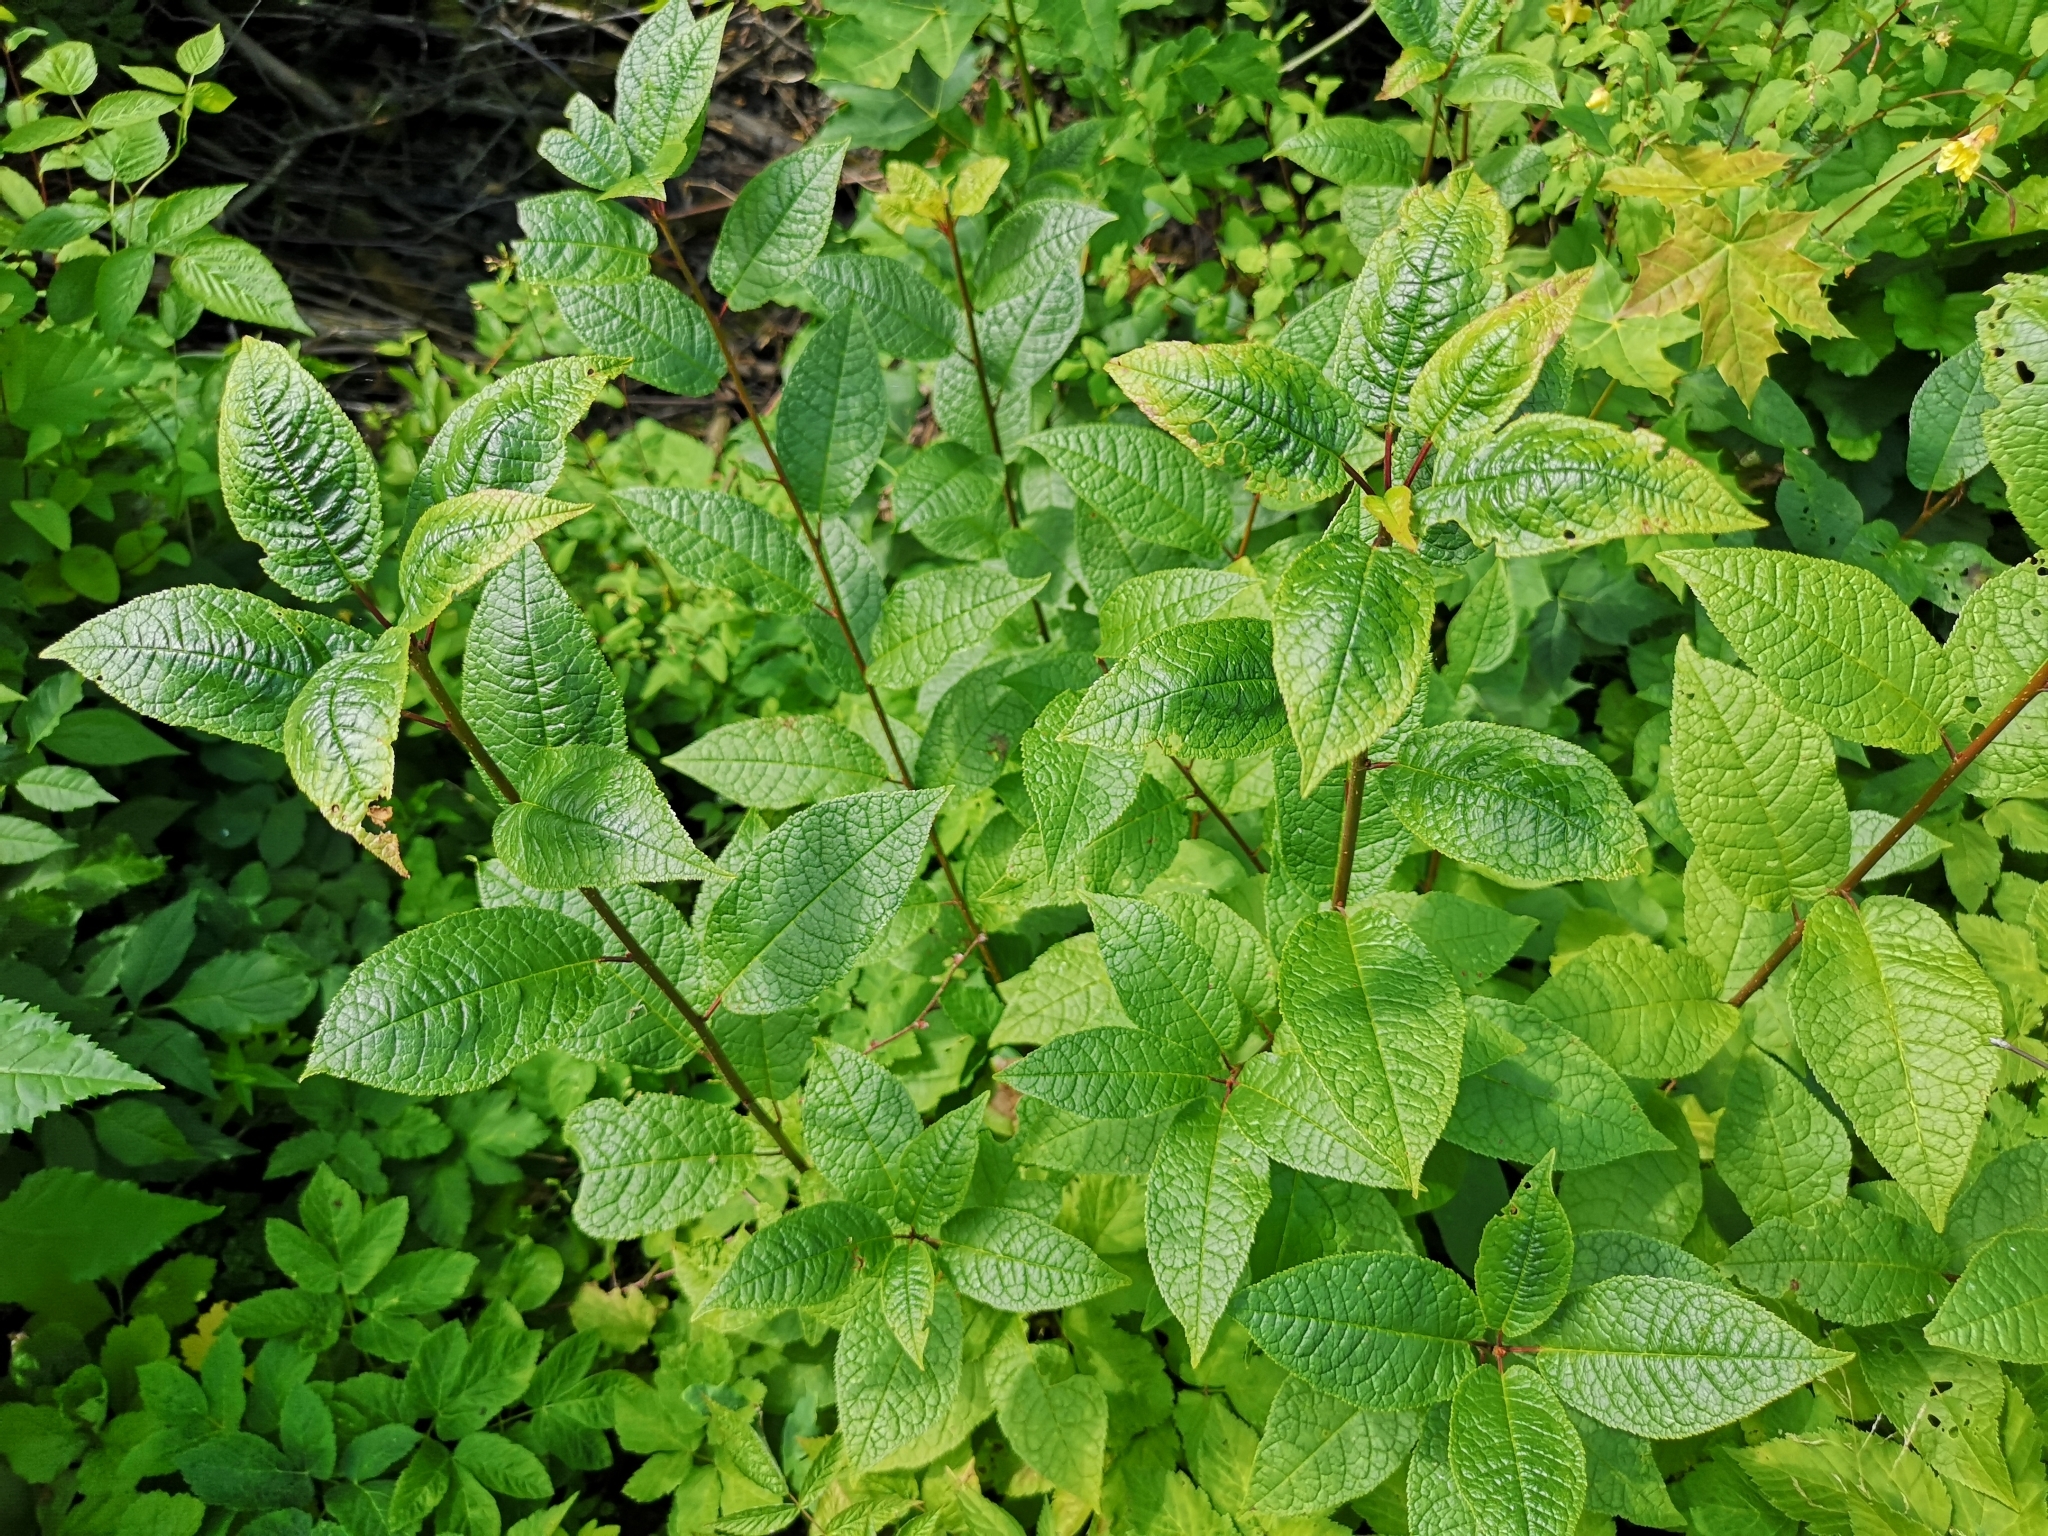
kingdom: Plantae
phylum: Tracheophyta
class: Magnoliopsida
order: Rosales
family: Rosaceae
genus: Prunus
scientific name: Prunus padus
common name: Bird cherry
